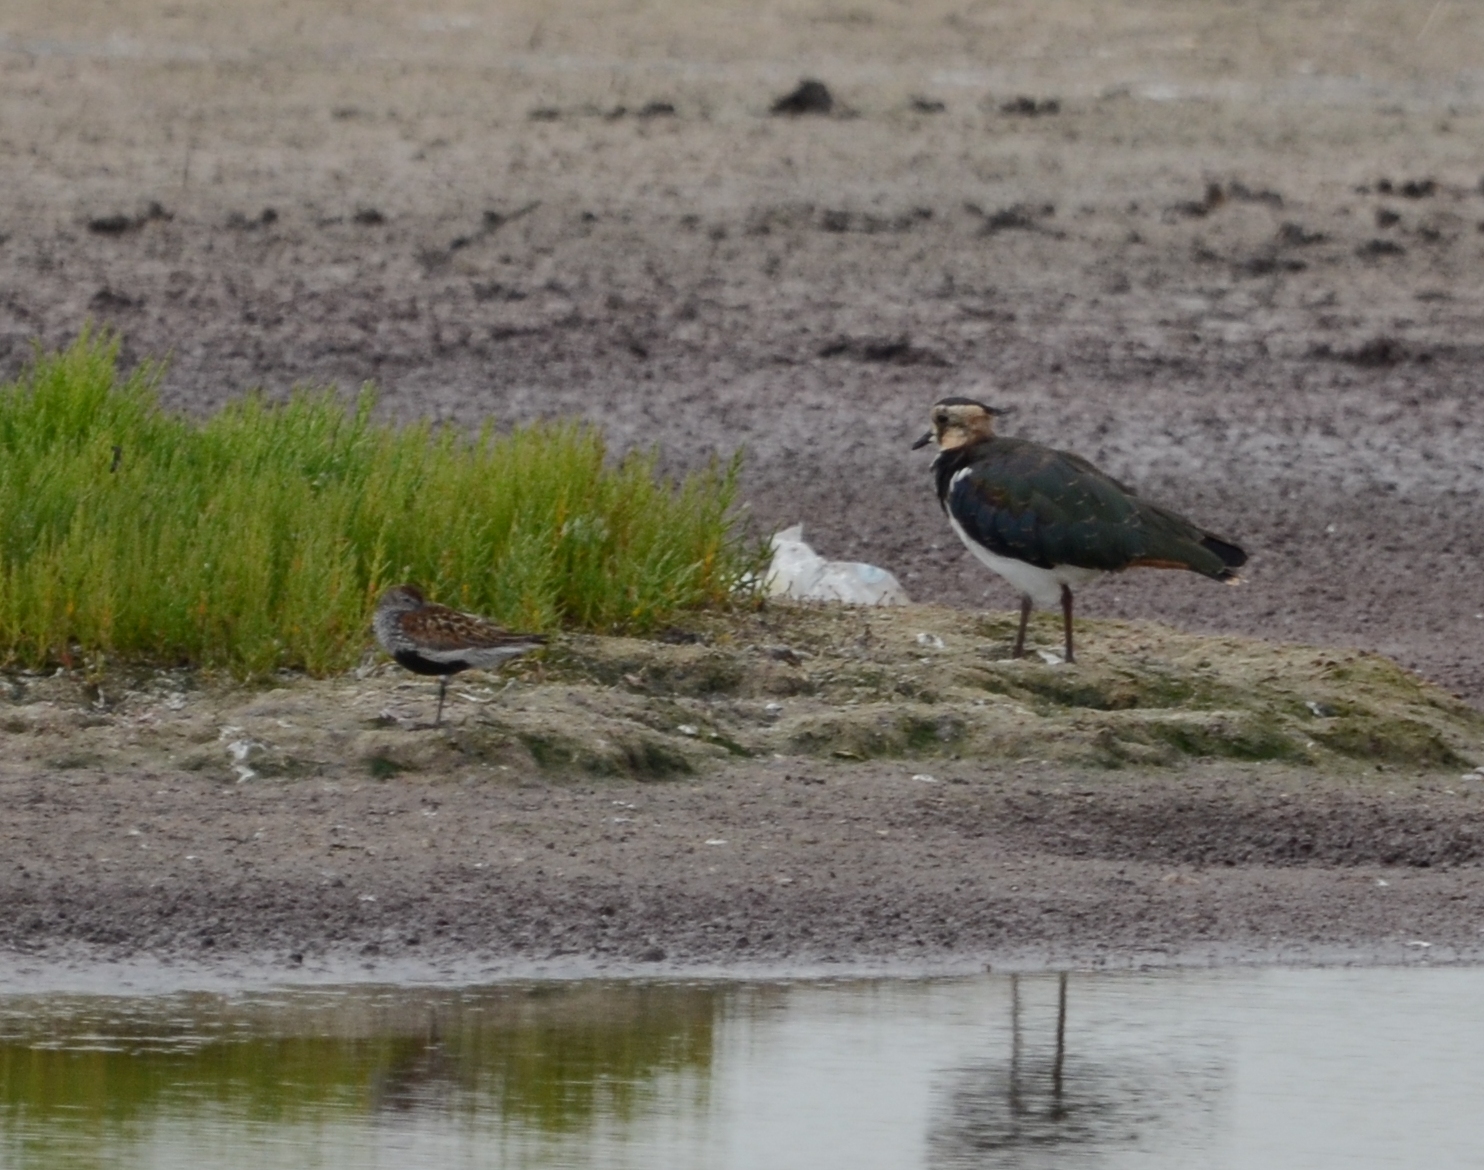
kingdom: Animalia
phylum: Chordata
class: Aves
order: Charadriiformes
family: Charadriidae
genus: Vanellus
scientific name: Vanellus vanellus
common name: Northern lapwing
